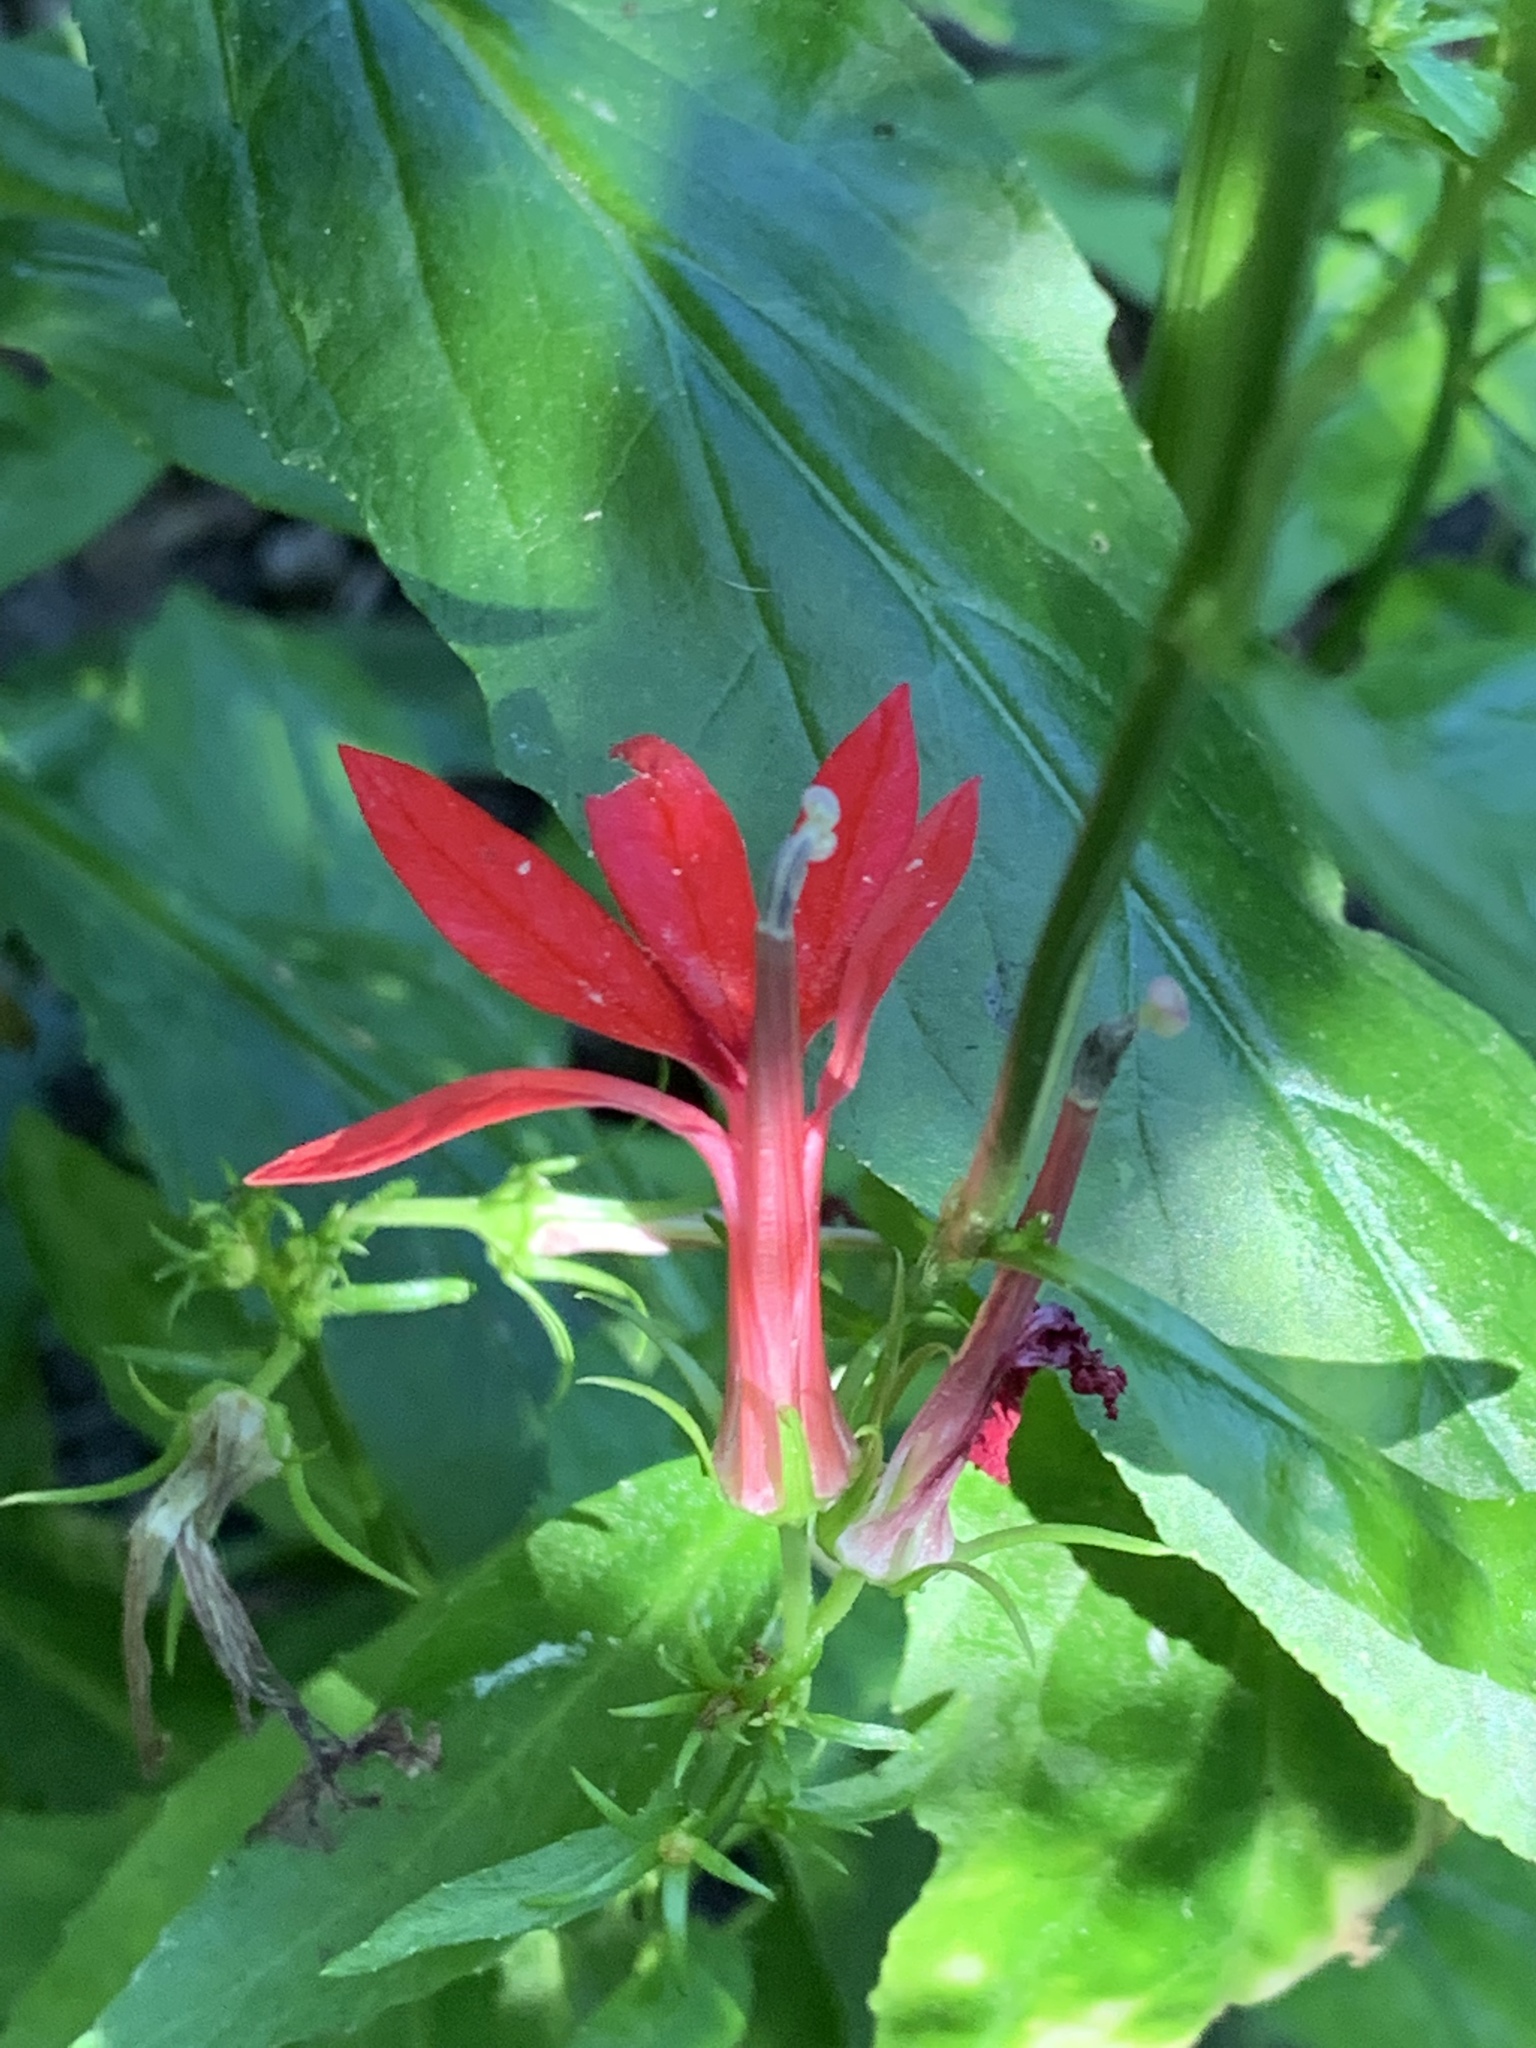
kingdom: Plantae
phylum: Tracheophyta
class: Magnoliopsida
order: Asterales
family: Campanulaceae
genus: Lobelia
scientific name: Lobelia cardinalis
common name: Cardinal flower
